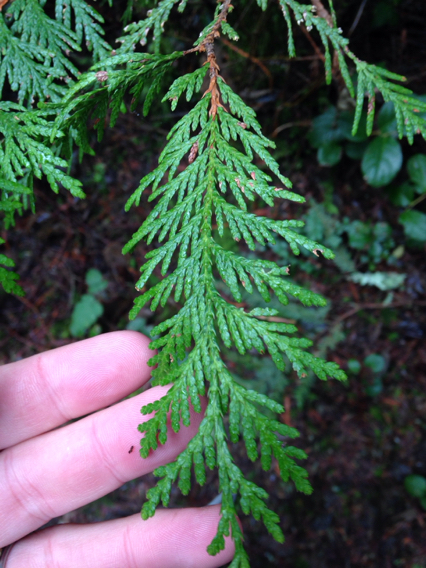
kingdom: Plantae
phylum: Tracheophyta
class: Pinopsida
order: Pinales
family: Cupressaceae
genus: Thuja
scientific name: Thuja plicata
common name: Western red-cedar
